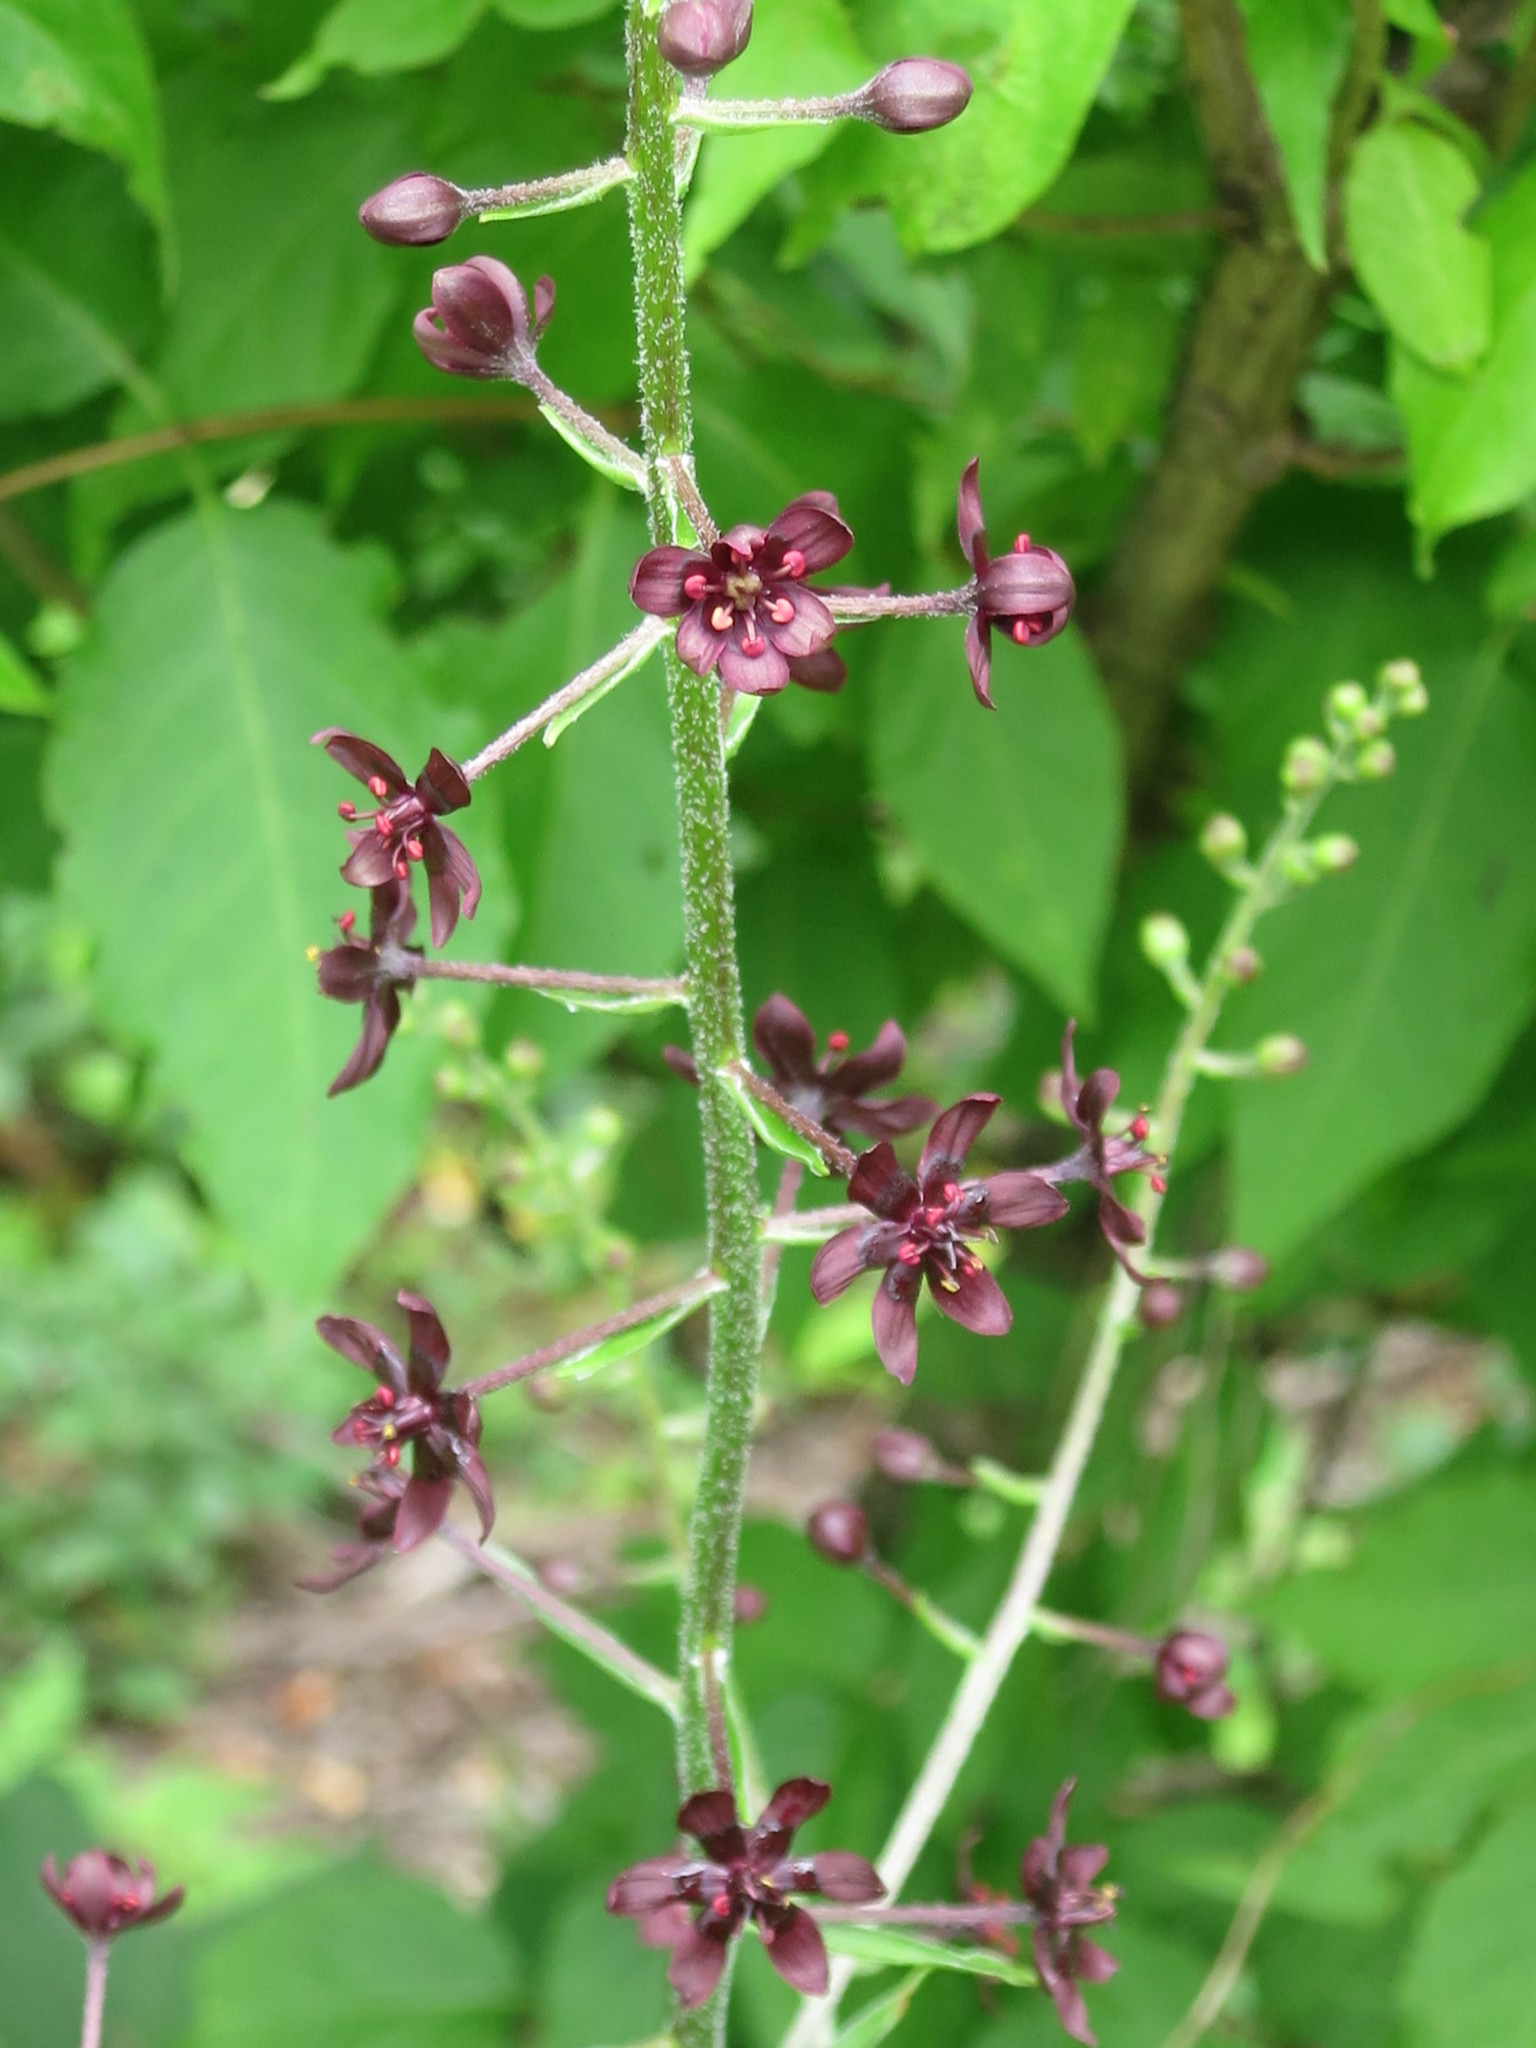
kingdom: Plantae
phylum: Tracheophyta
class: Liliopsida
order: Liliales
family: Melanthiaceae
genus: Veratrum
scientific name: Veratrum maackii
